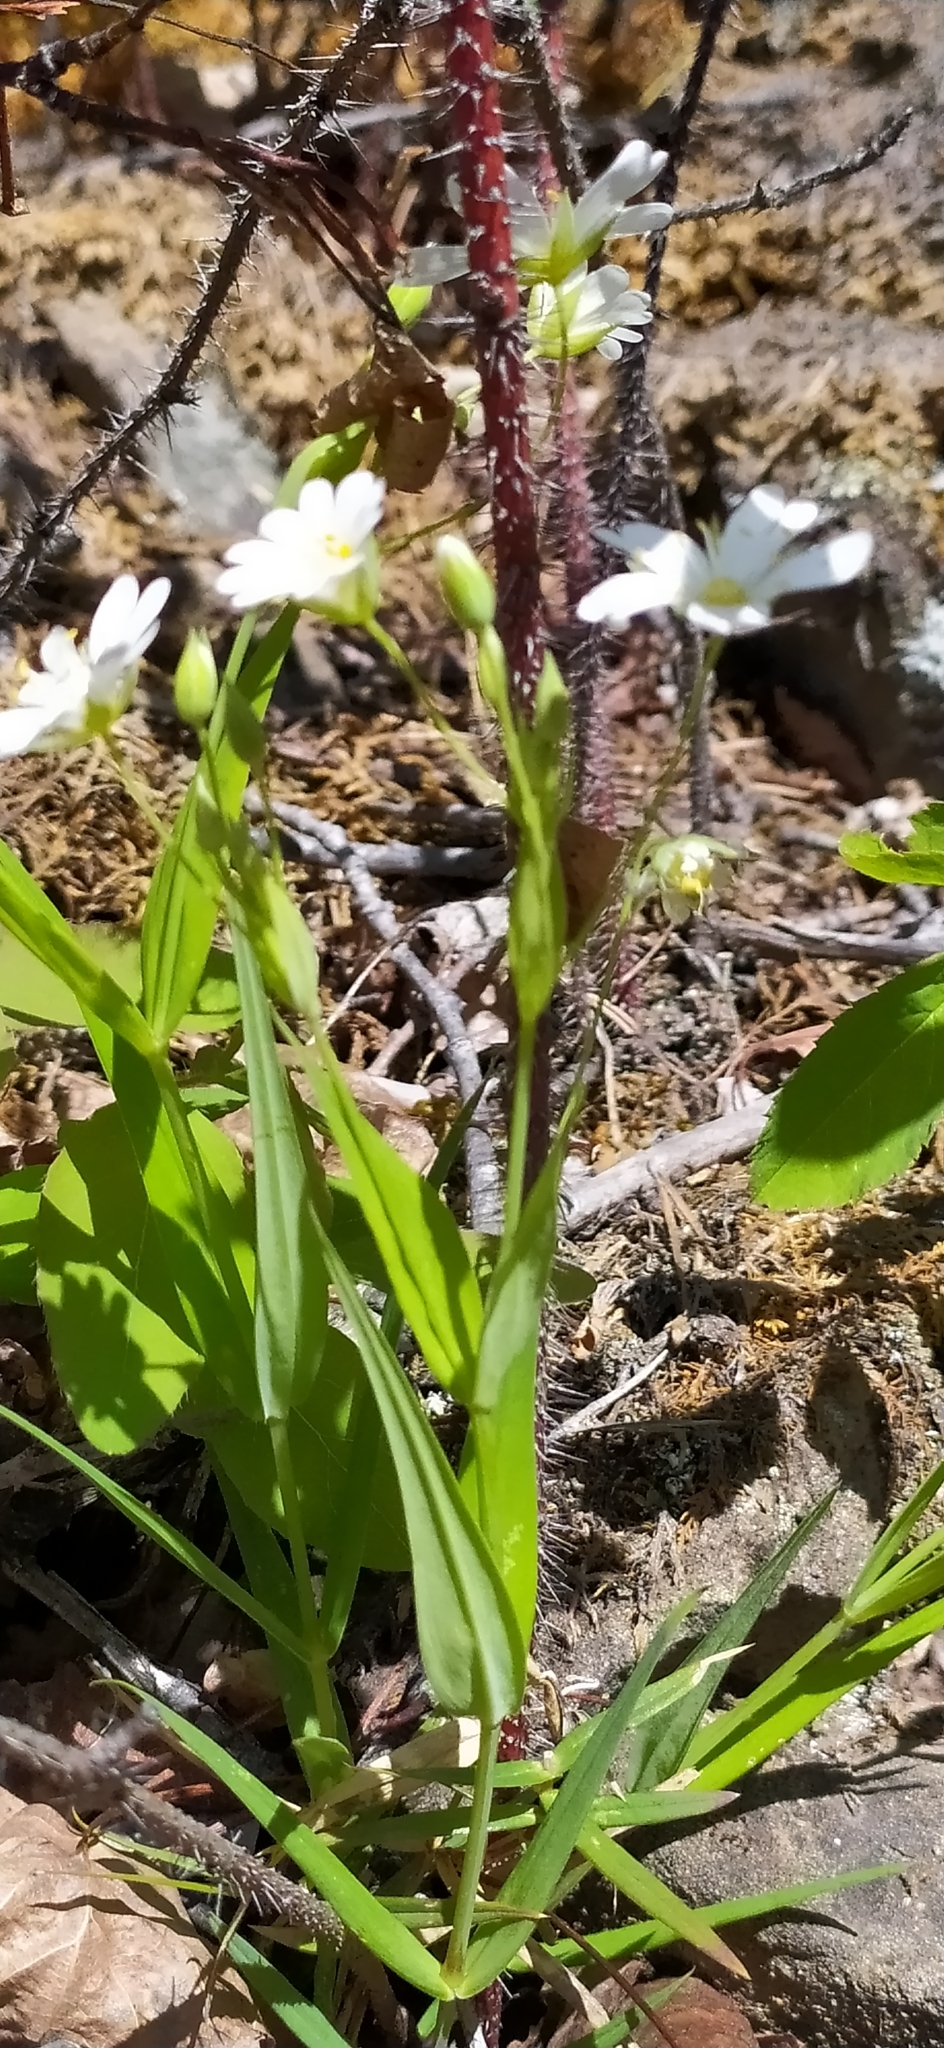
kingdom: Plantae
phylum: Tracheophyta
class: Magnoliopsida
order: Caryophyllales
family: Caryophyllaceae
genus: Rabelera
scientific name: Rabelera holostea
